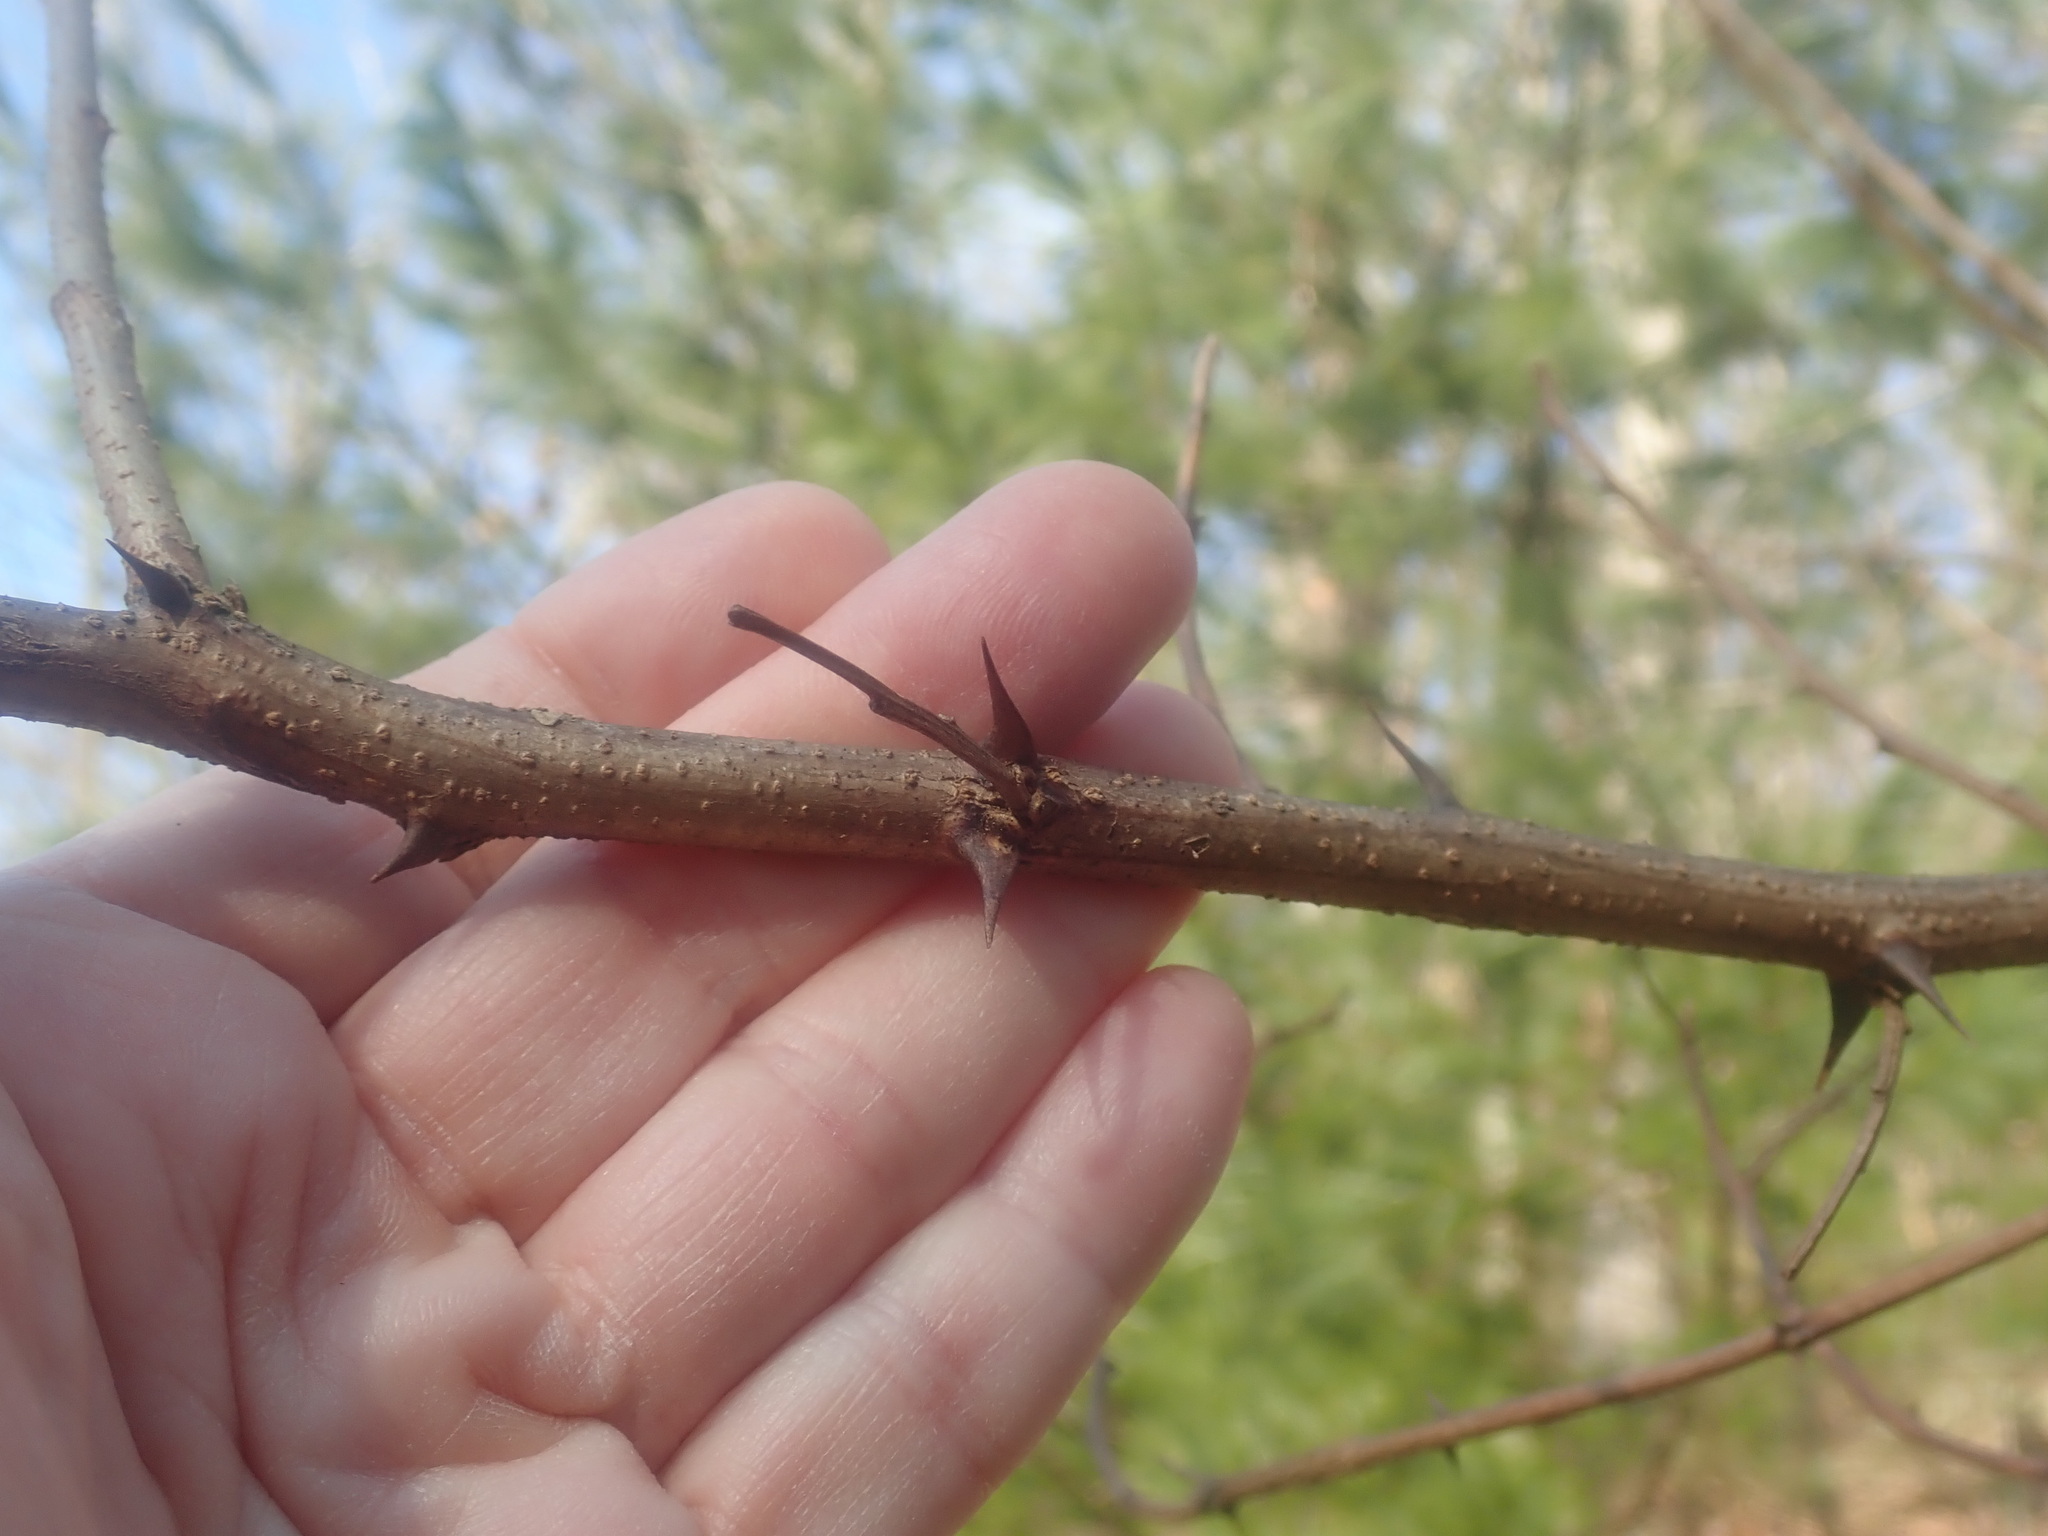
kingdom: Plantae
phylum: Tracheophyta
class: Magnoliopsida
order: Fabales
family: Fabaceae
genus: Robinia
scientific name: Robinia pseudoacacia
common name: Black locust
